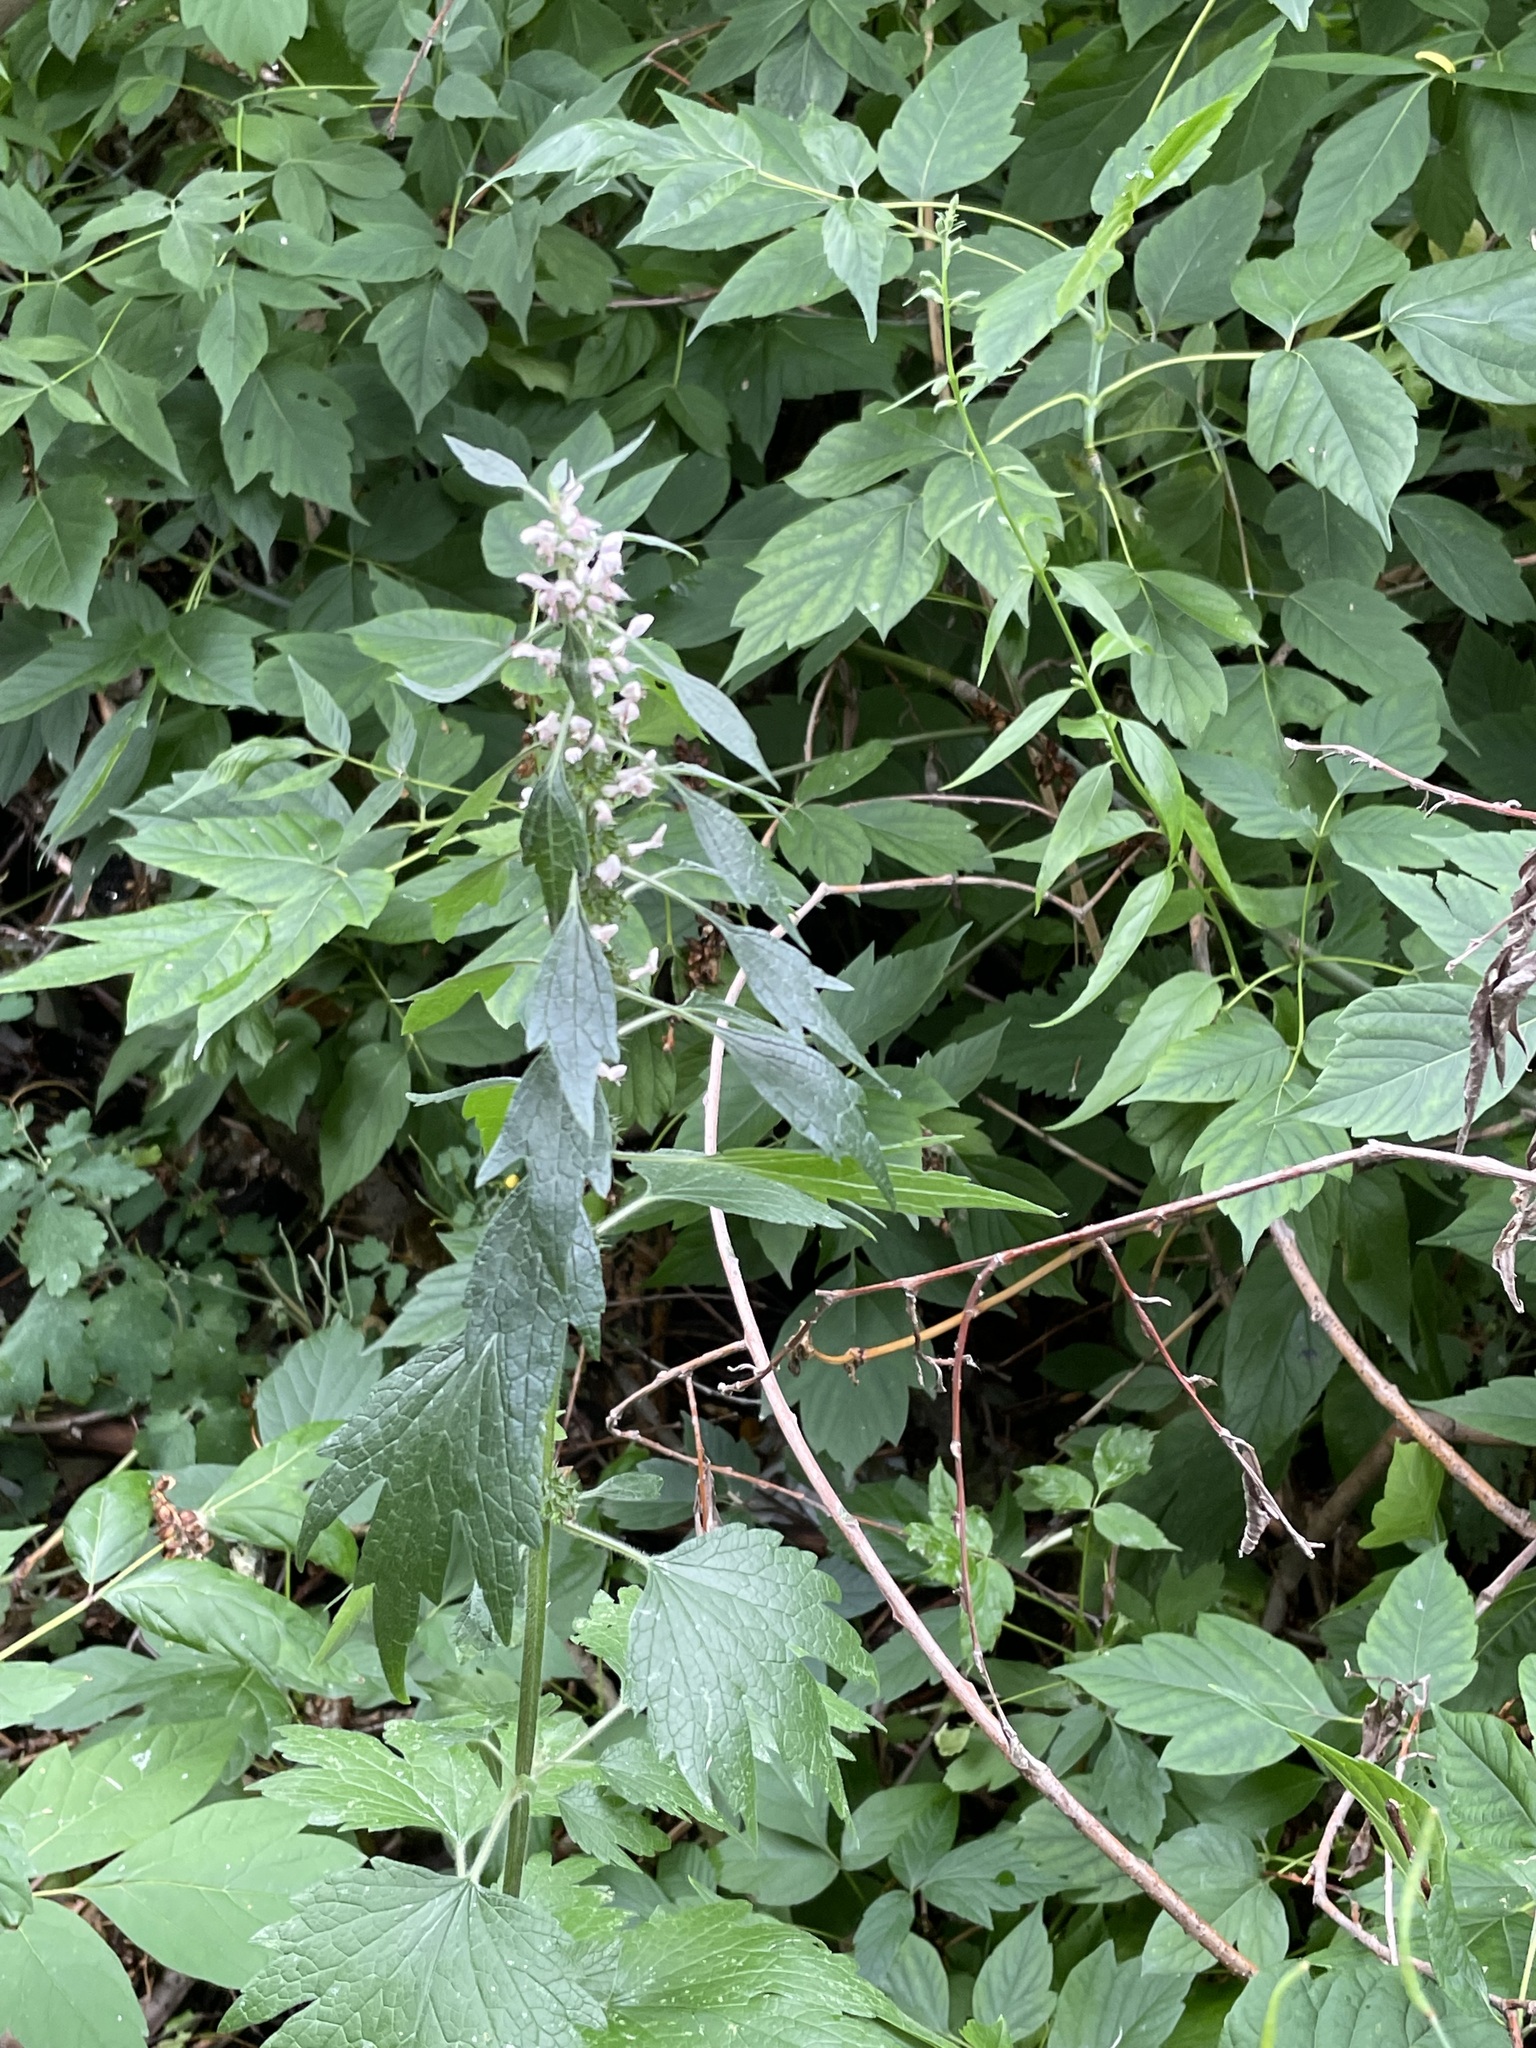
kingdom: Plantae
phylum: Tracheophyta
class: Magnoliopsida
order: Lamiales
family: Lamiaceae
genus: Leonurus
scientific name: Leonurus quinquelobatus
